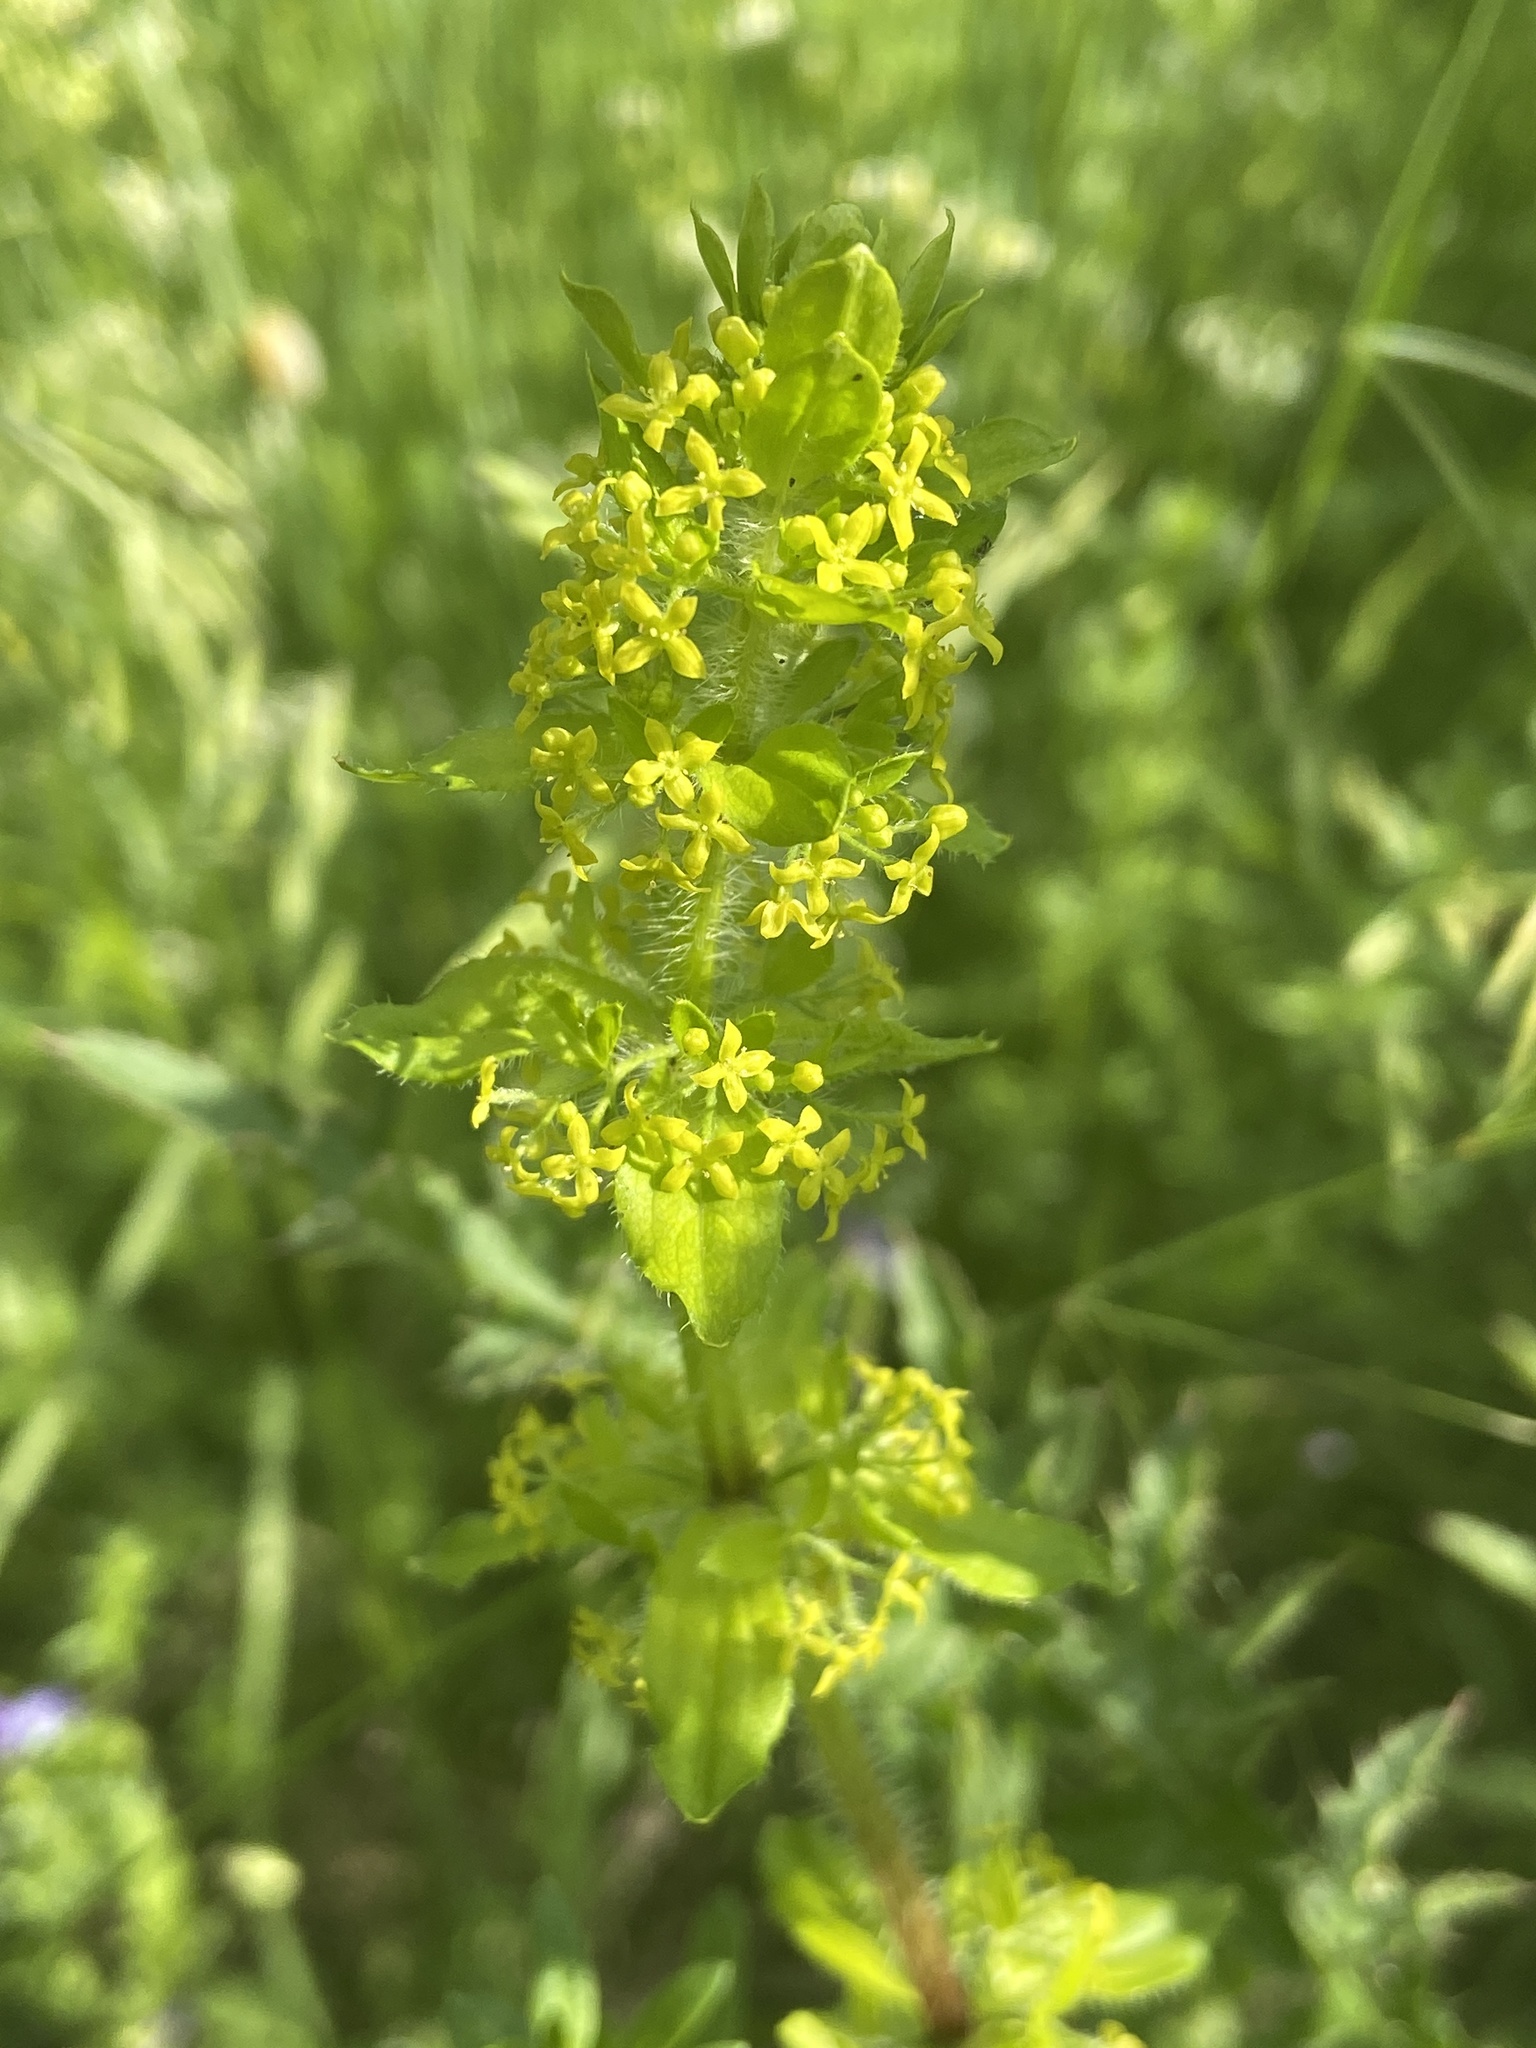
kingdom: Plantae
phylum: Tracheophyta
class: Magnoliopsida
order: Gentianales
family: Rubiaceae
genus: Cruciata
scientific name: Cruciata laevipes
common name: Crosswort
